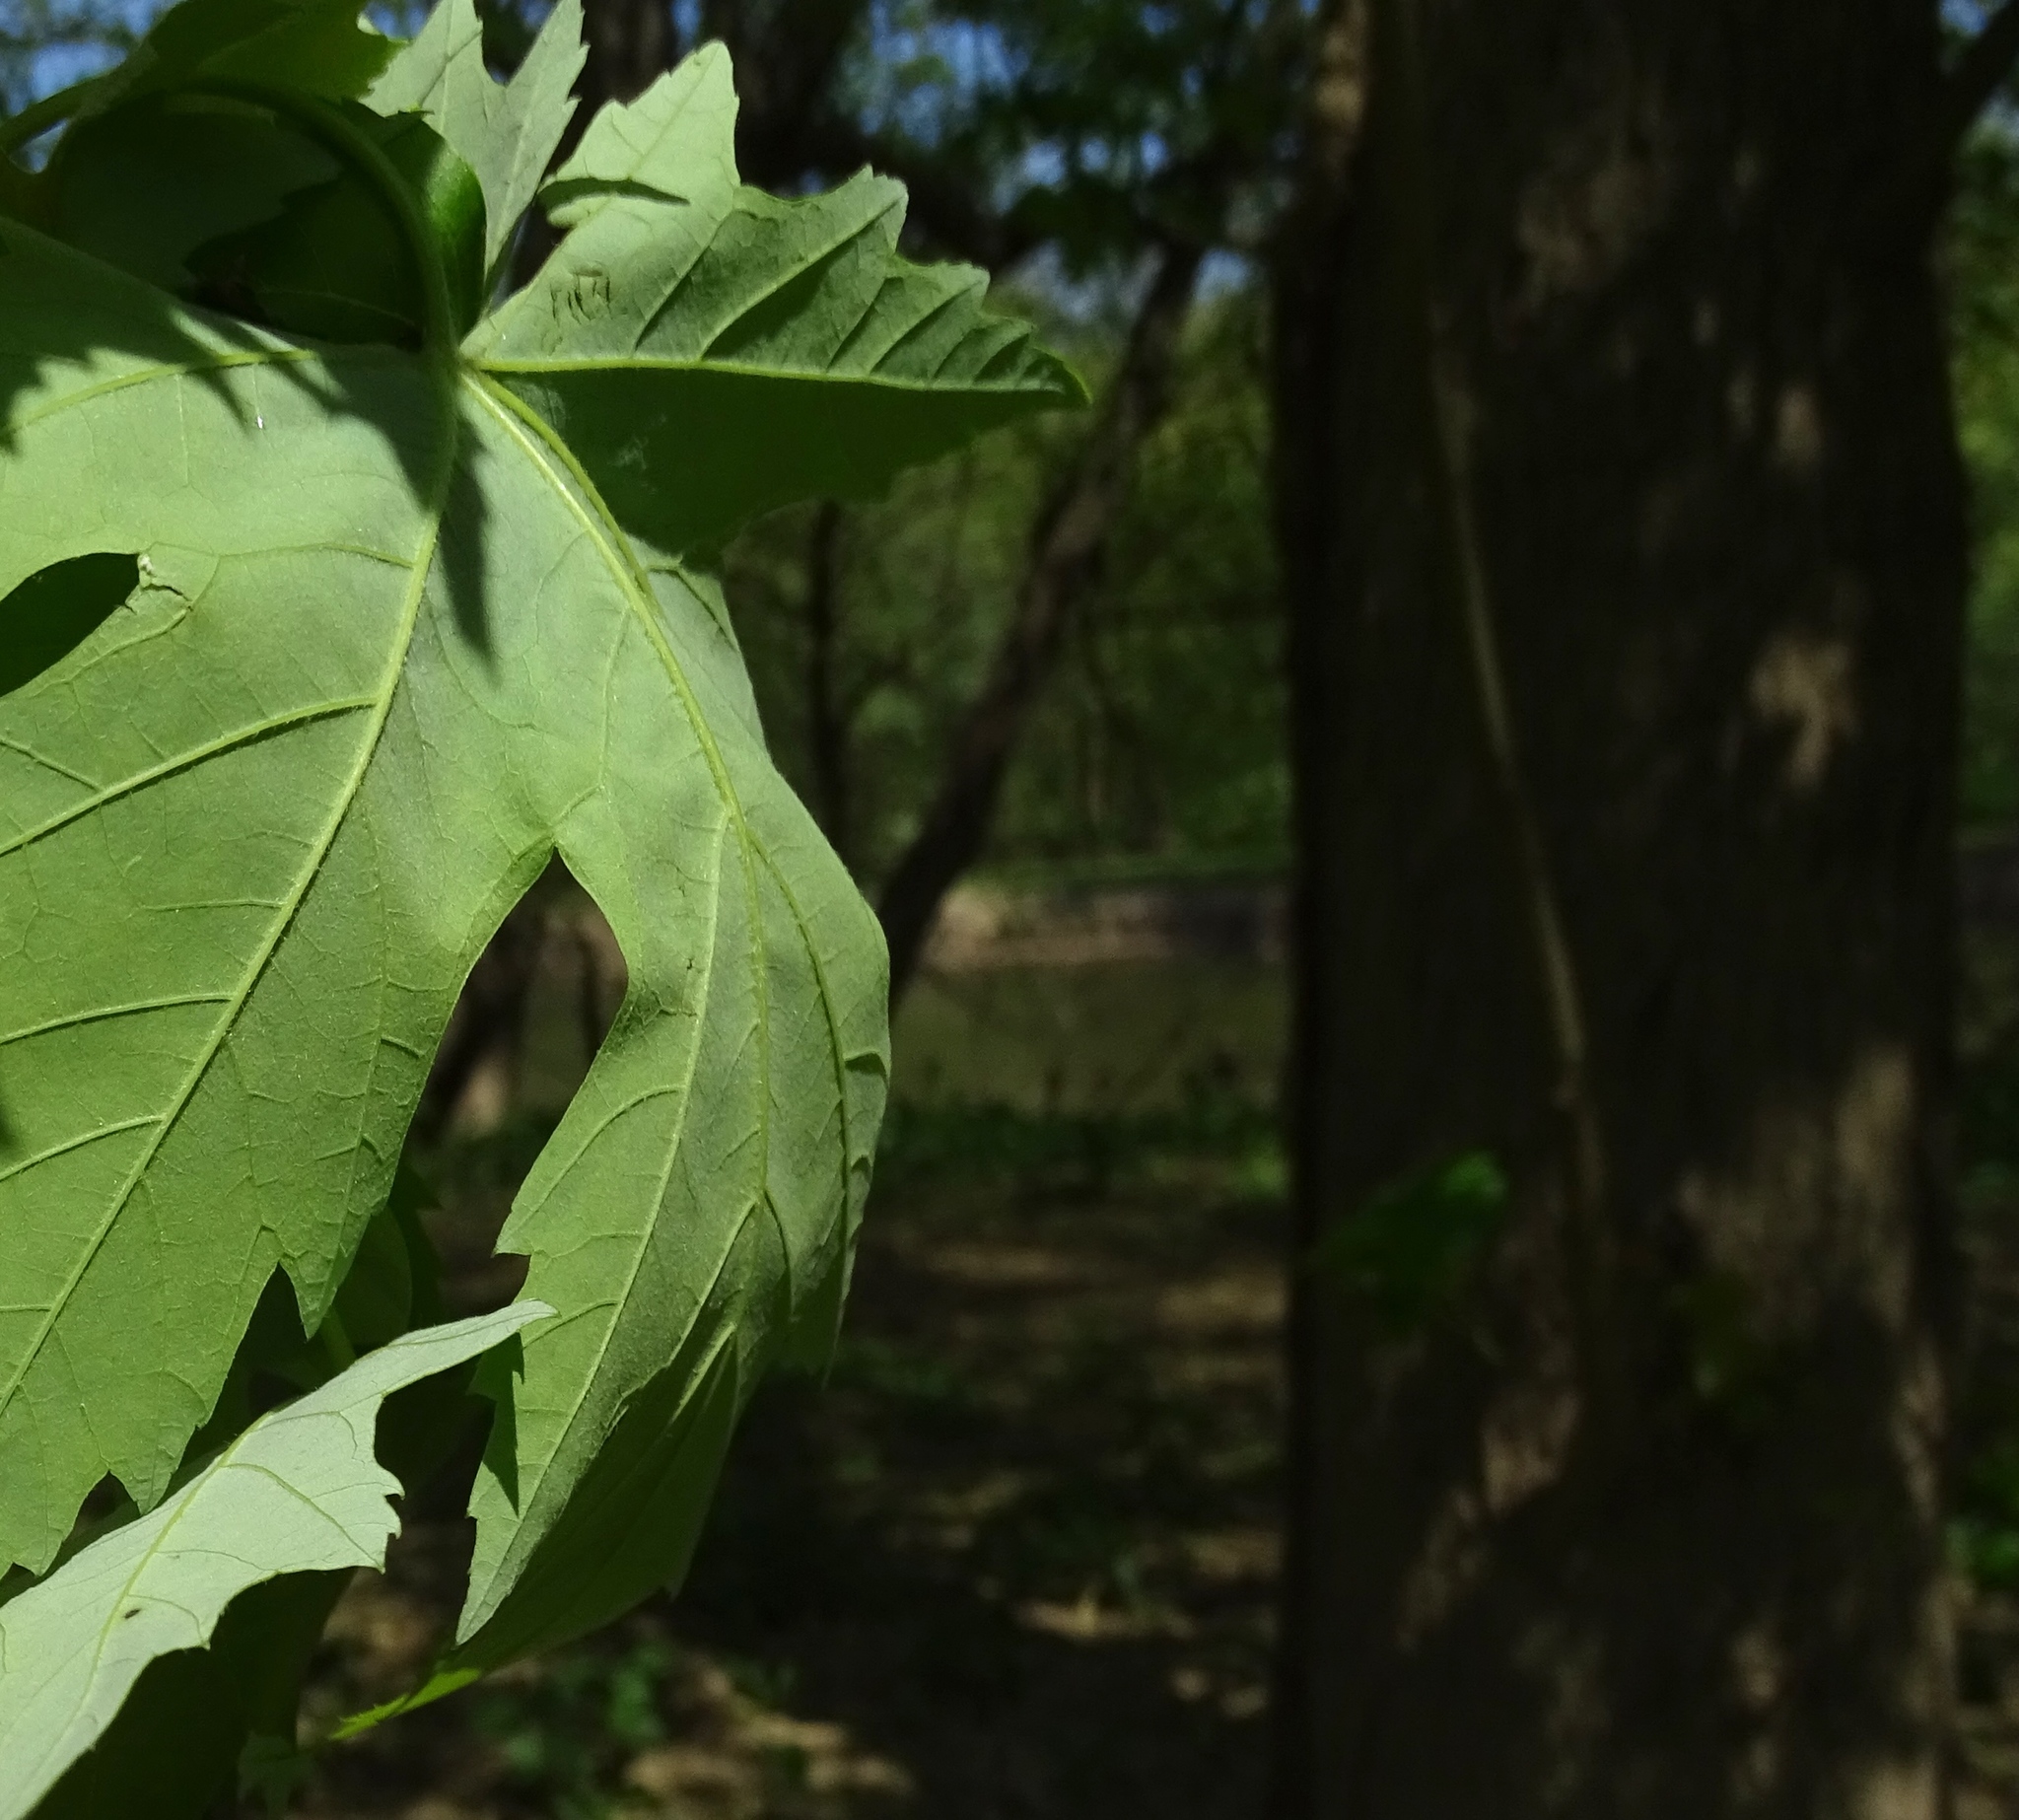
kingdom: Plantae
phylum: Tracheophyta
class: Magnoliopsida
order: Sapindales
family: Sapindaceae
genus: Acer
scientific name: Acer saccharinum
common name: Silver maple
